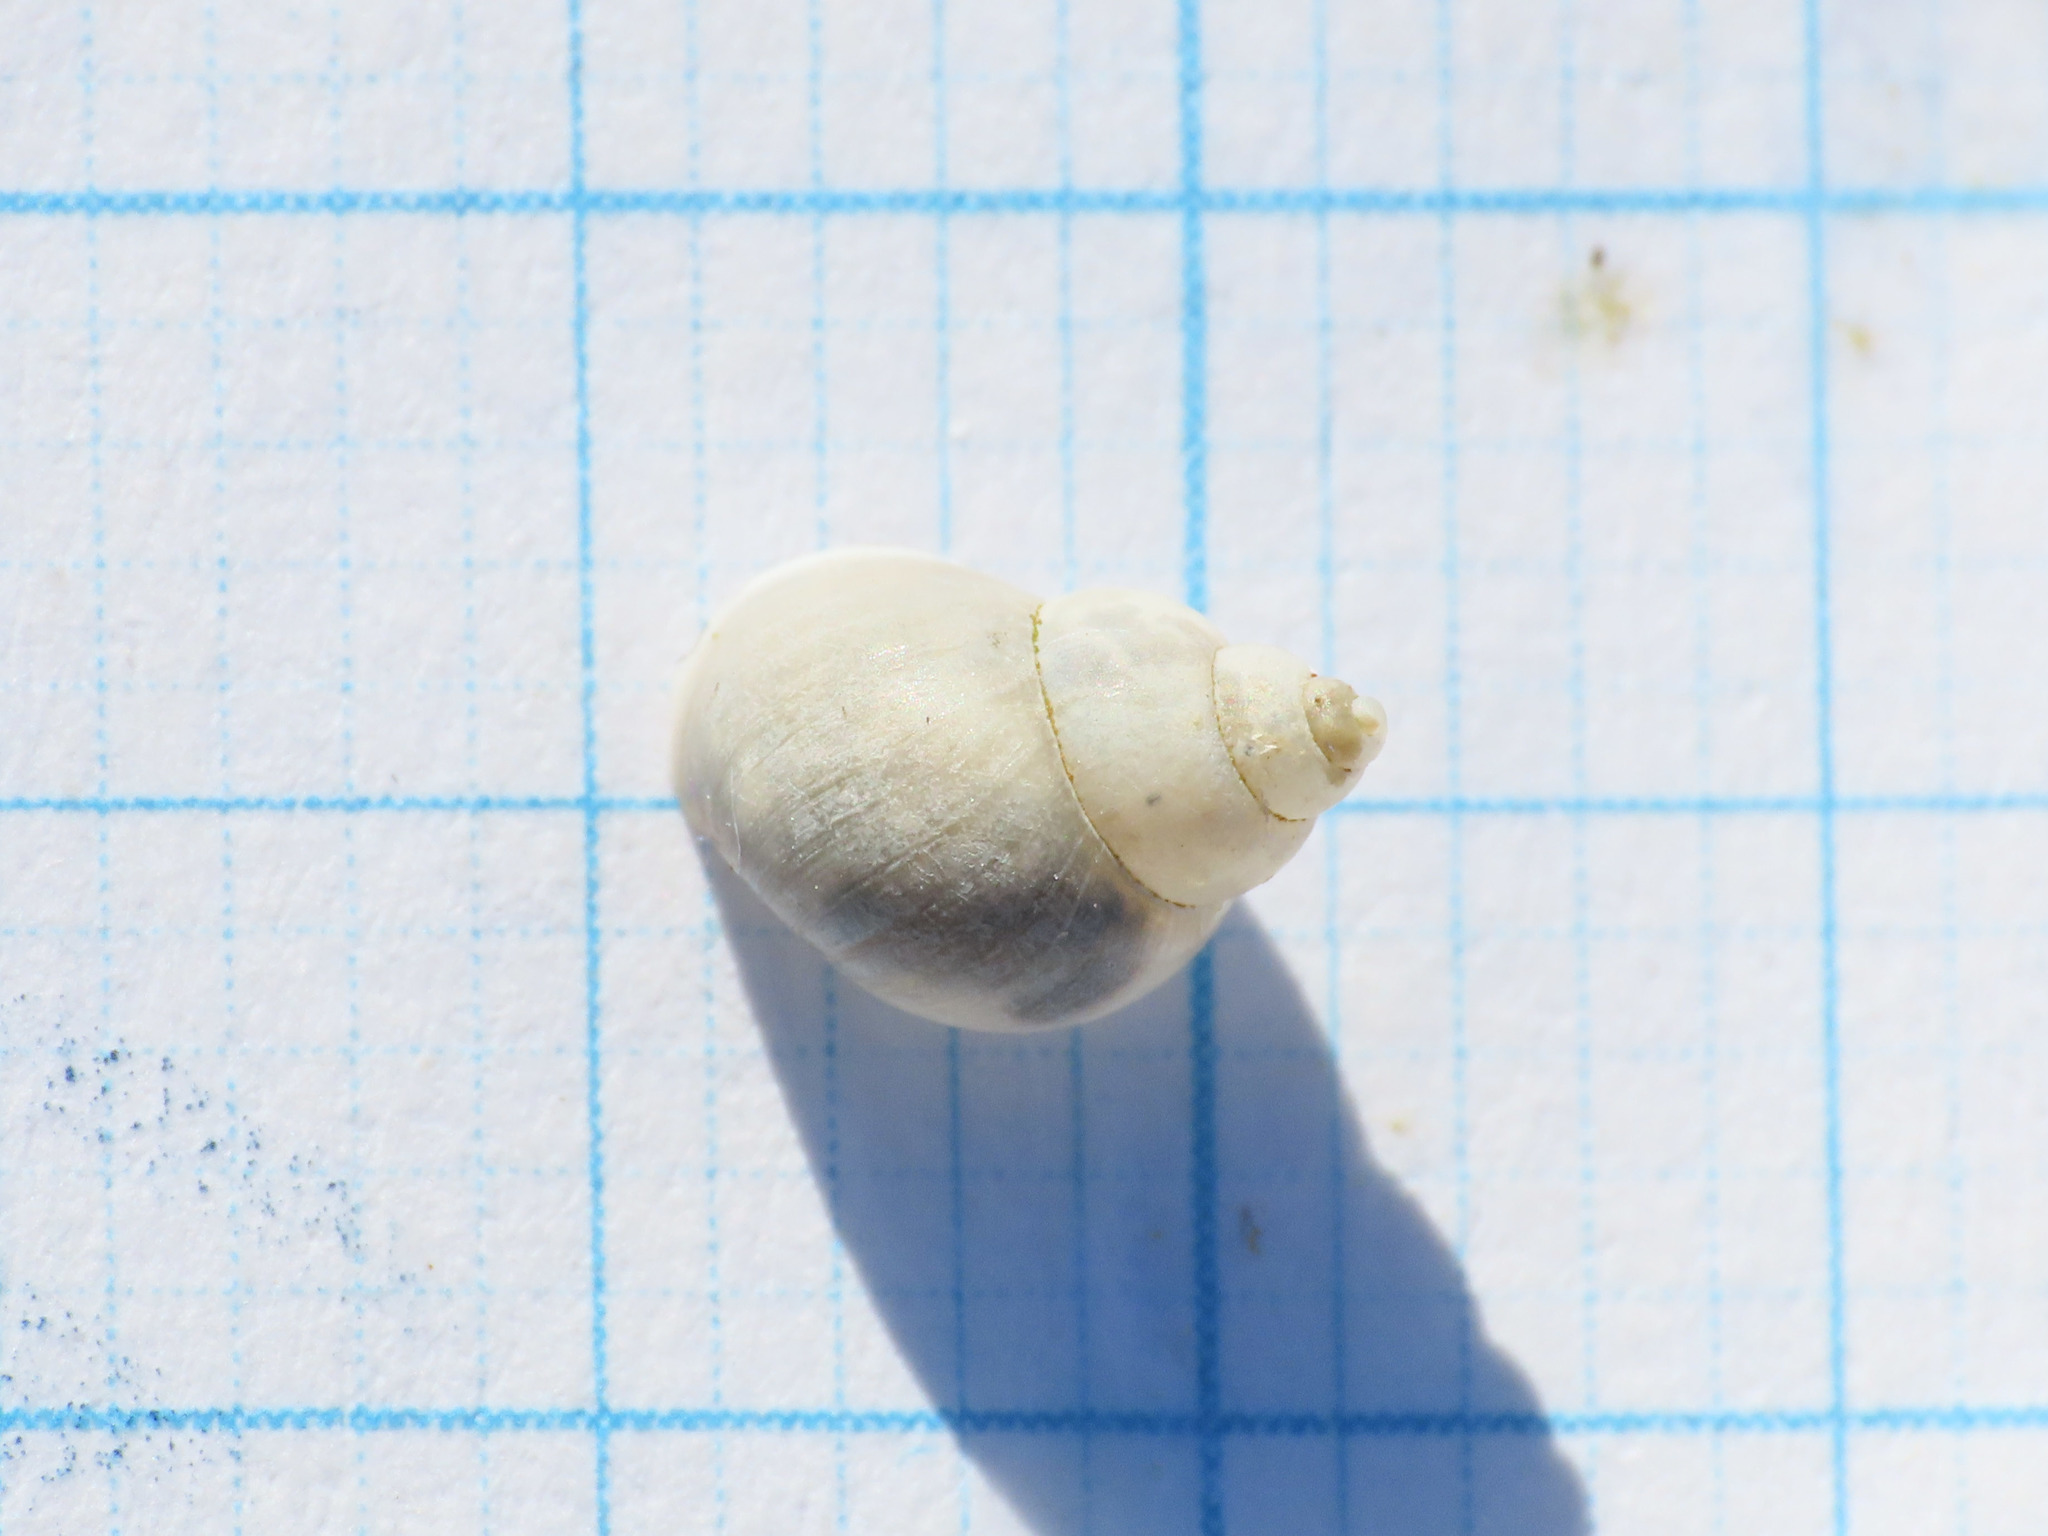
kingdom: Animalia
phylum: Mollusca
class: Gastropoda
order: Littorinimorpha
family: Bithyniidae
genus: Bithynia
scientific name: Bithynia tentaculata
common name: Common bithynia
